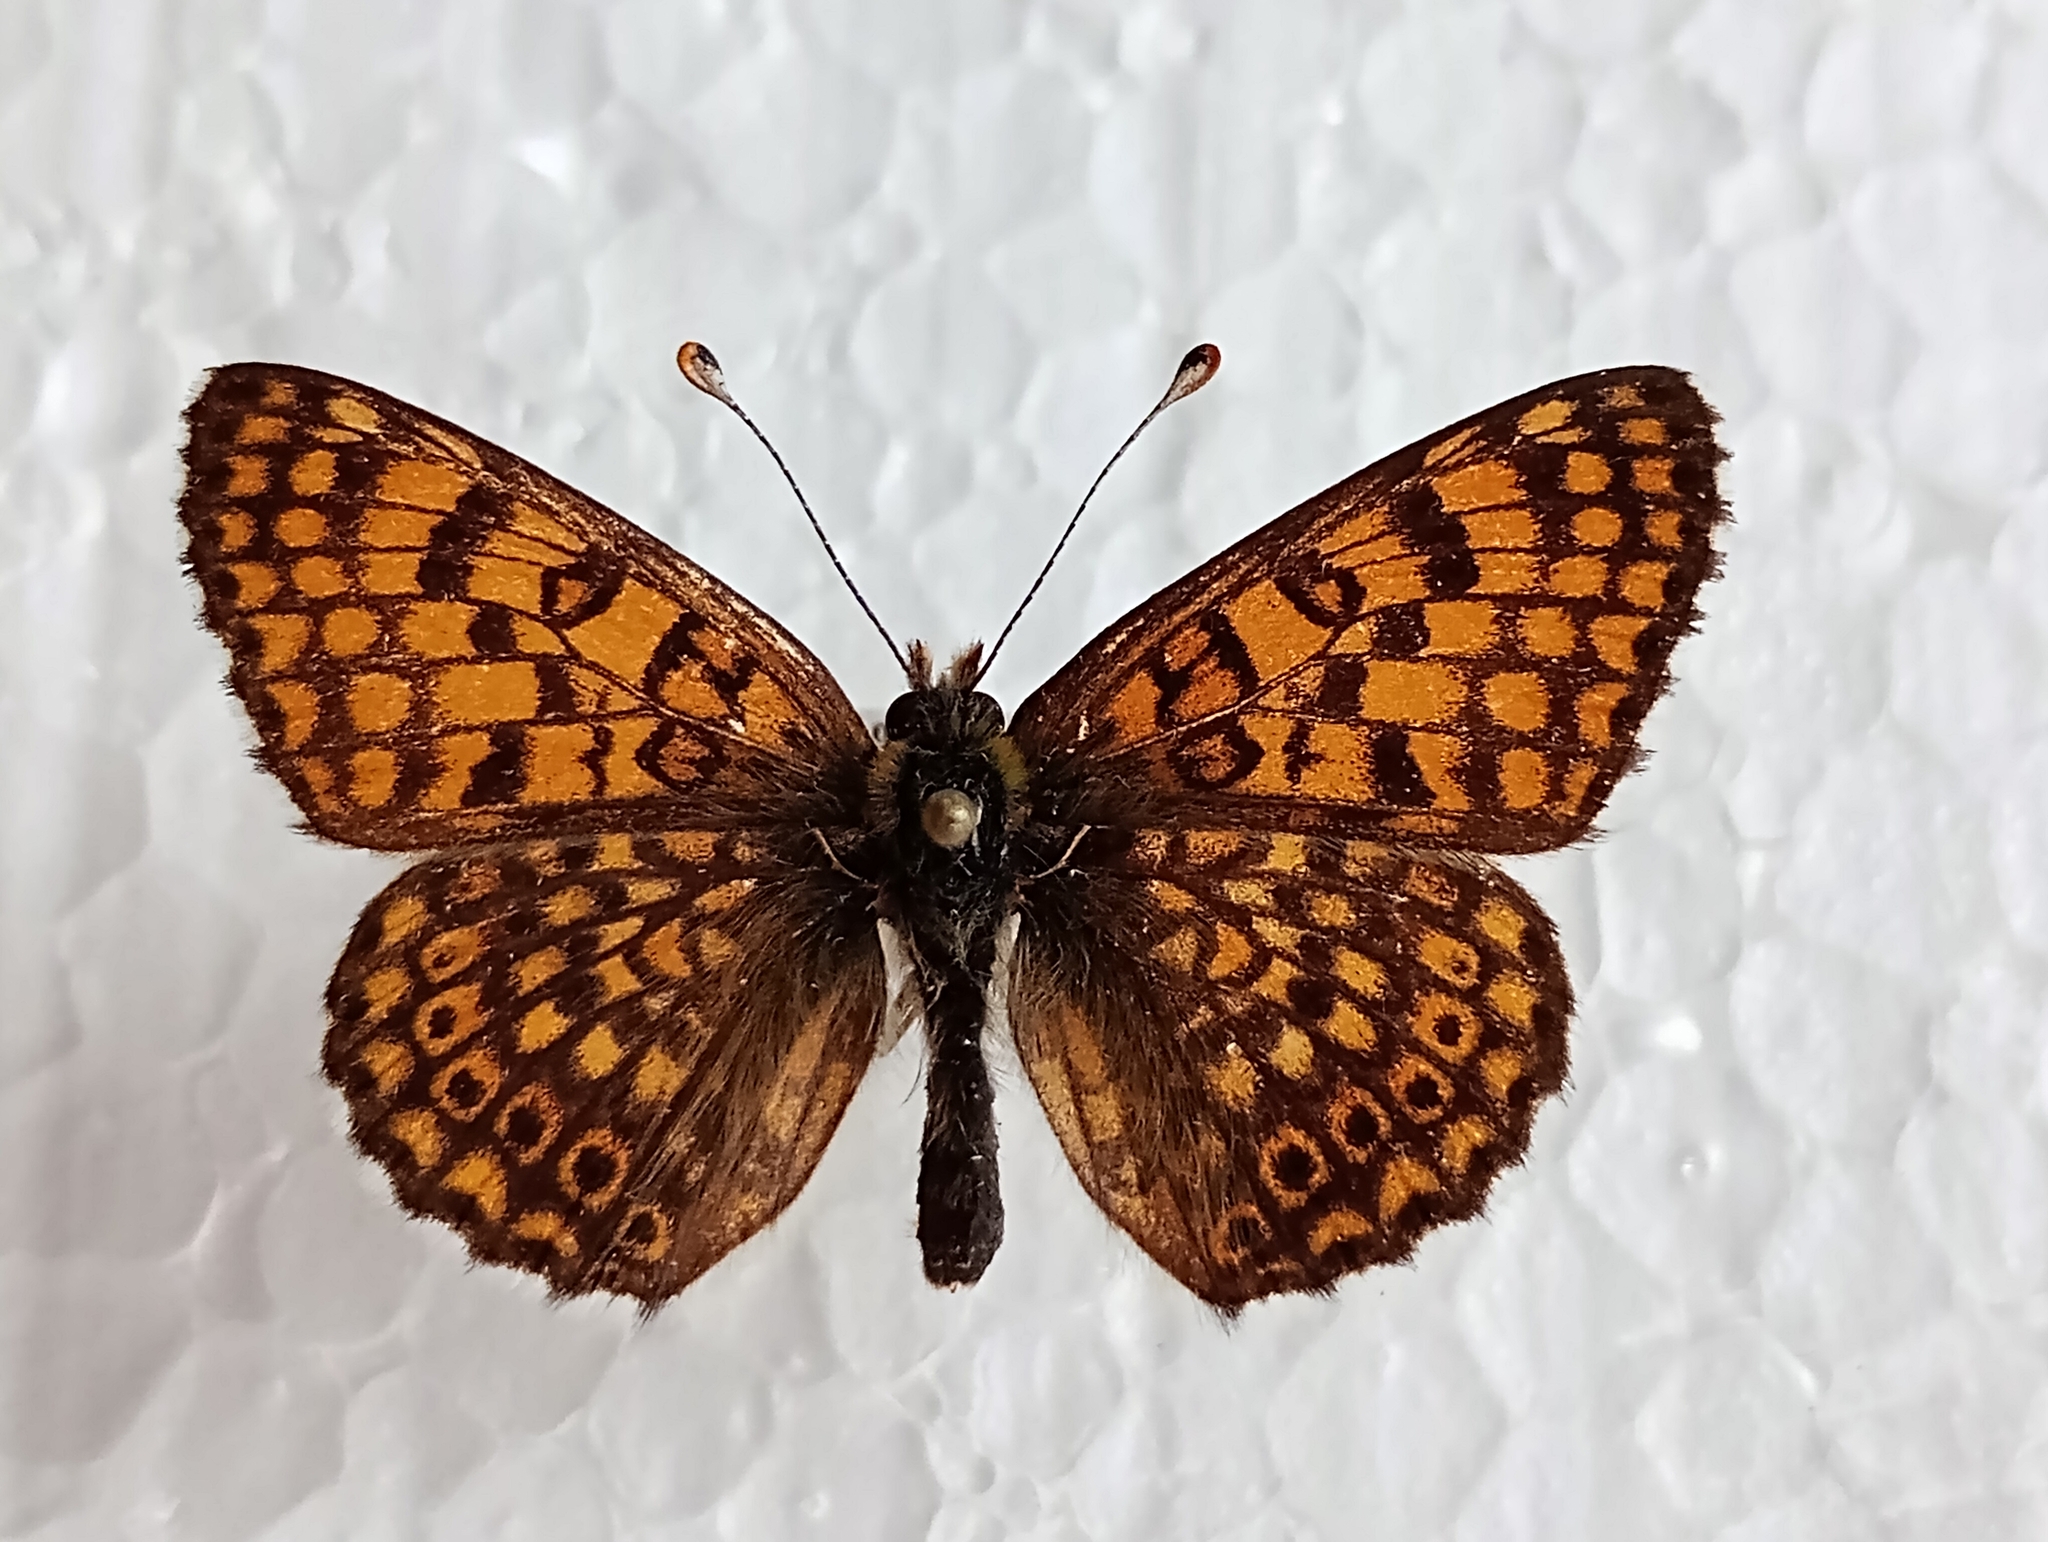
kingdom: Animalia
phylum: Arthropoda
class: Insecta
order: Lepidoptera
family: Nymphalidae
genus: Melitaea
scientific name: Melitaea cinxia
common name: Glanville fritillary
